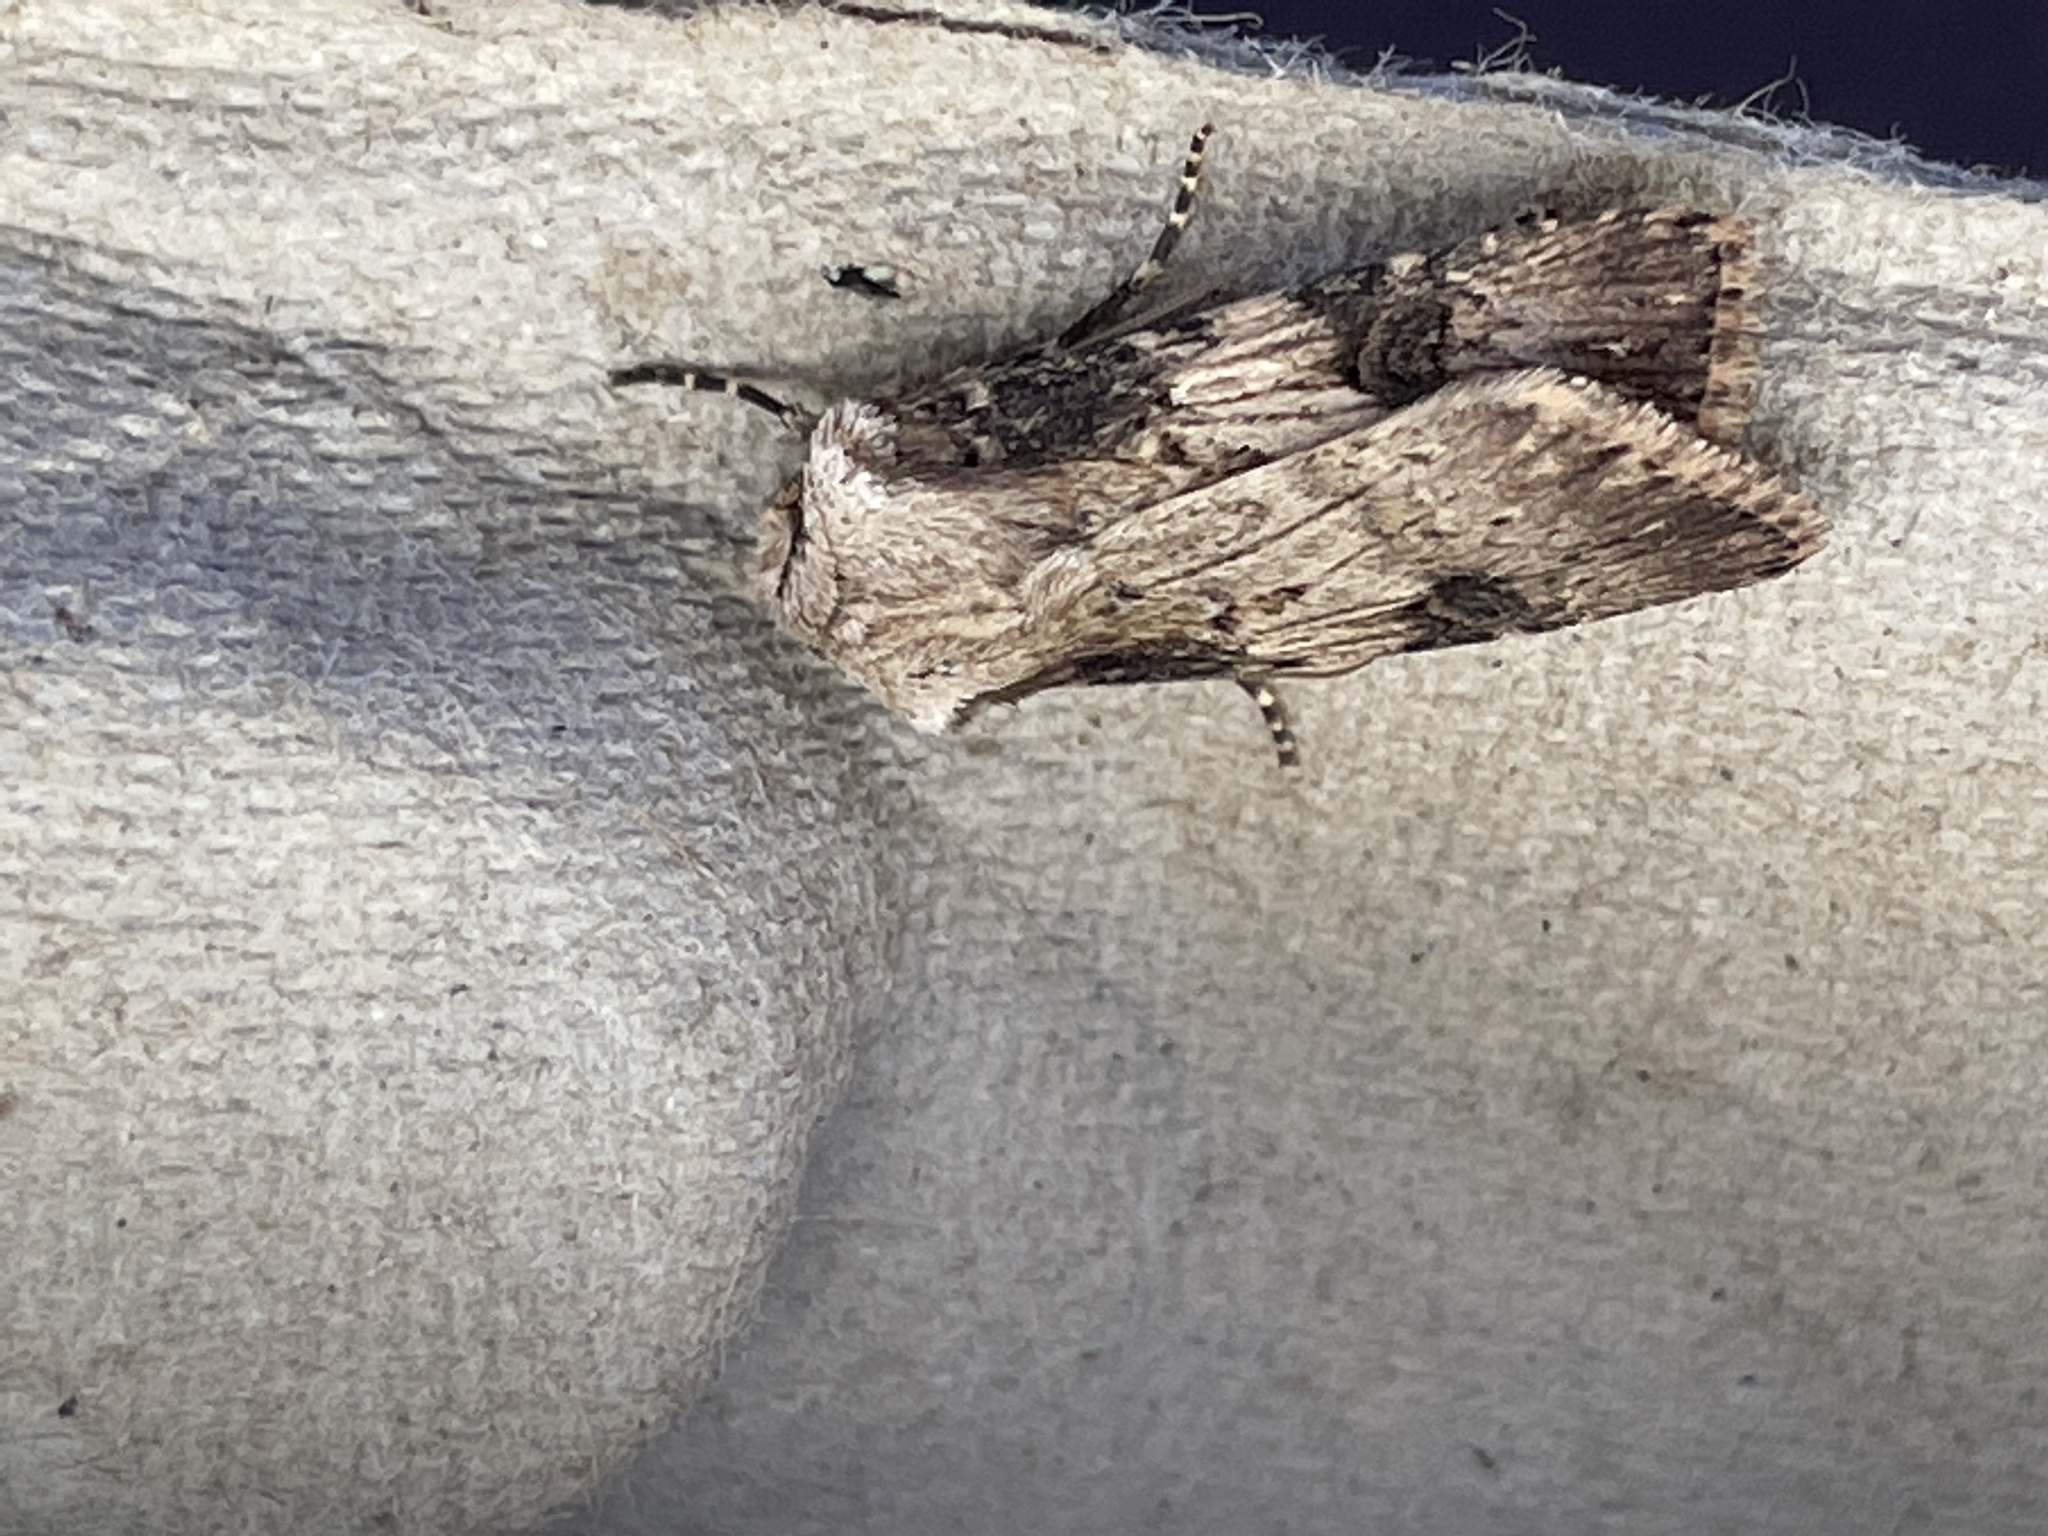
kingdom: Animalia
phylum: Arthropoda
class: Insecta
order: Lepidoptera
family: Noctuidae
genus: Agrotis
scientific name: Agrotis puta
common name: Shuttle-shaped dart
